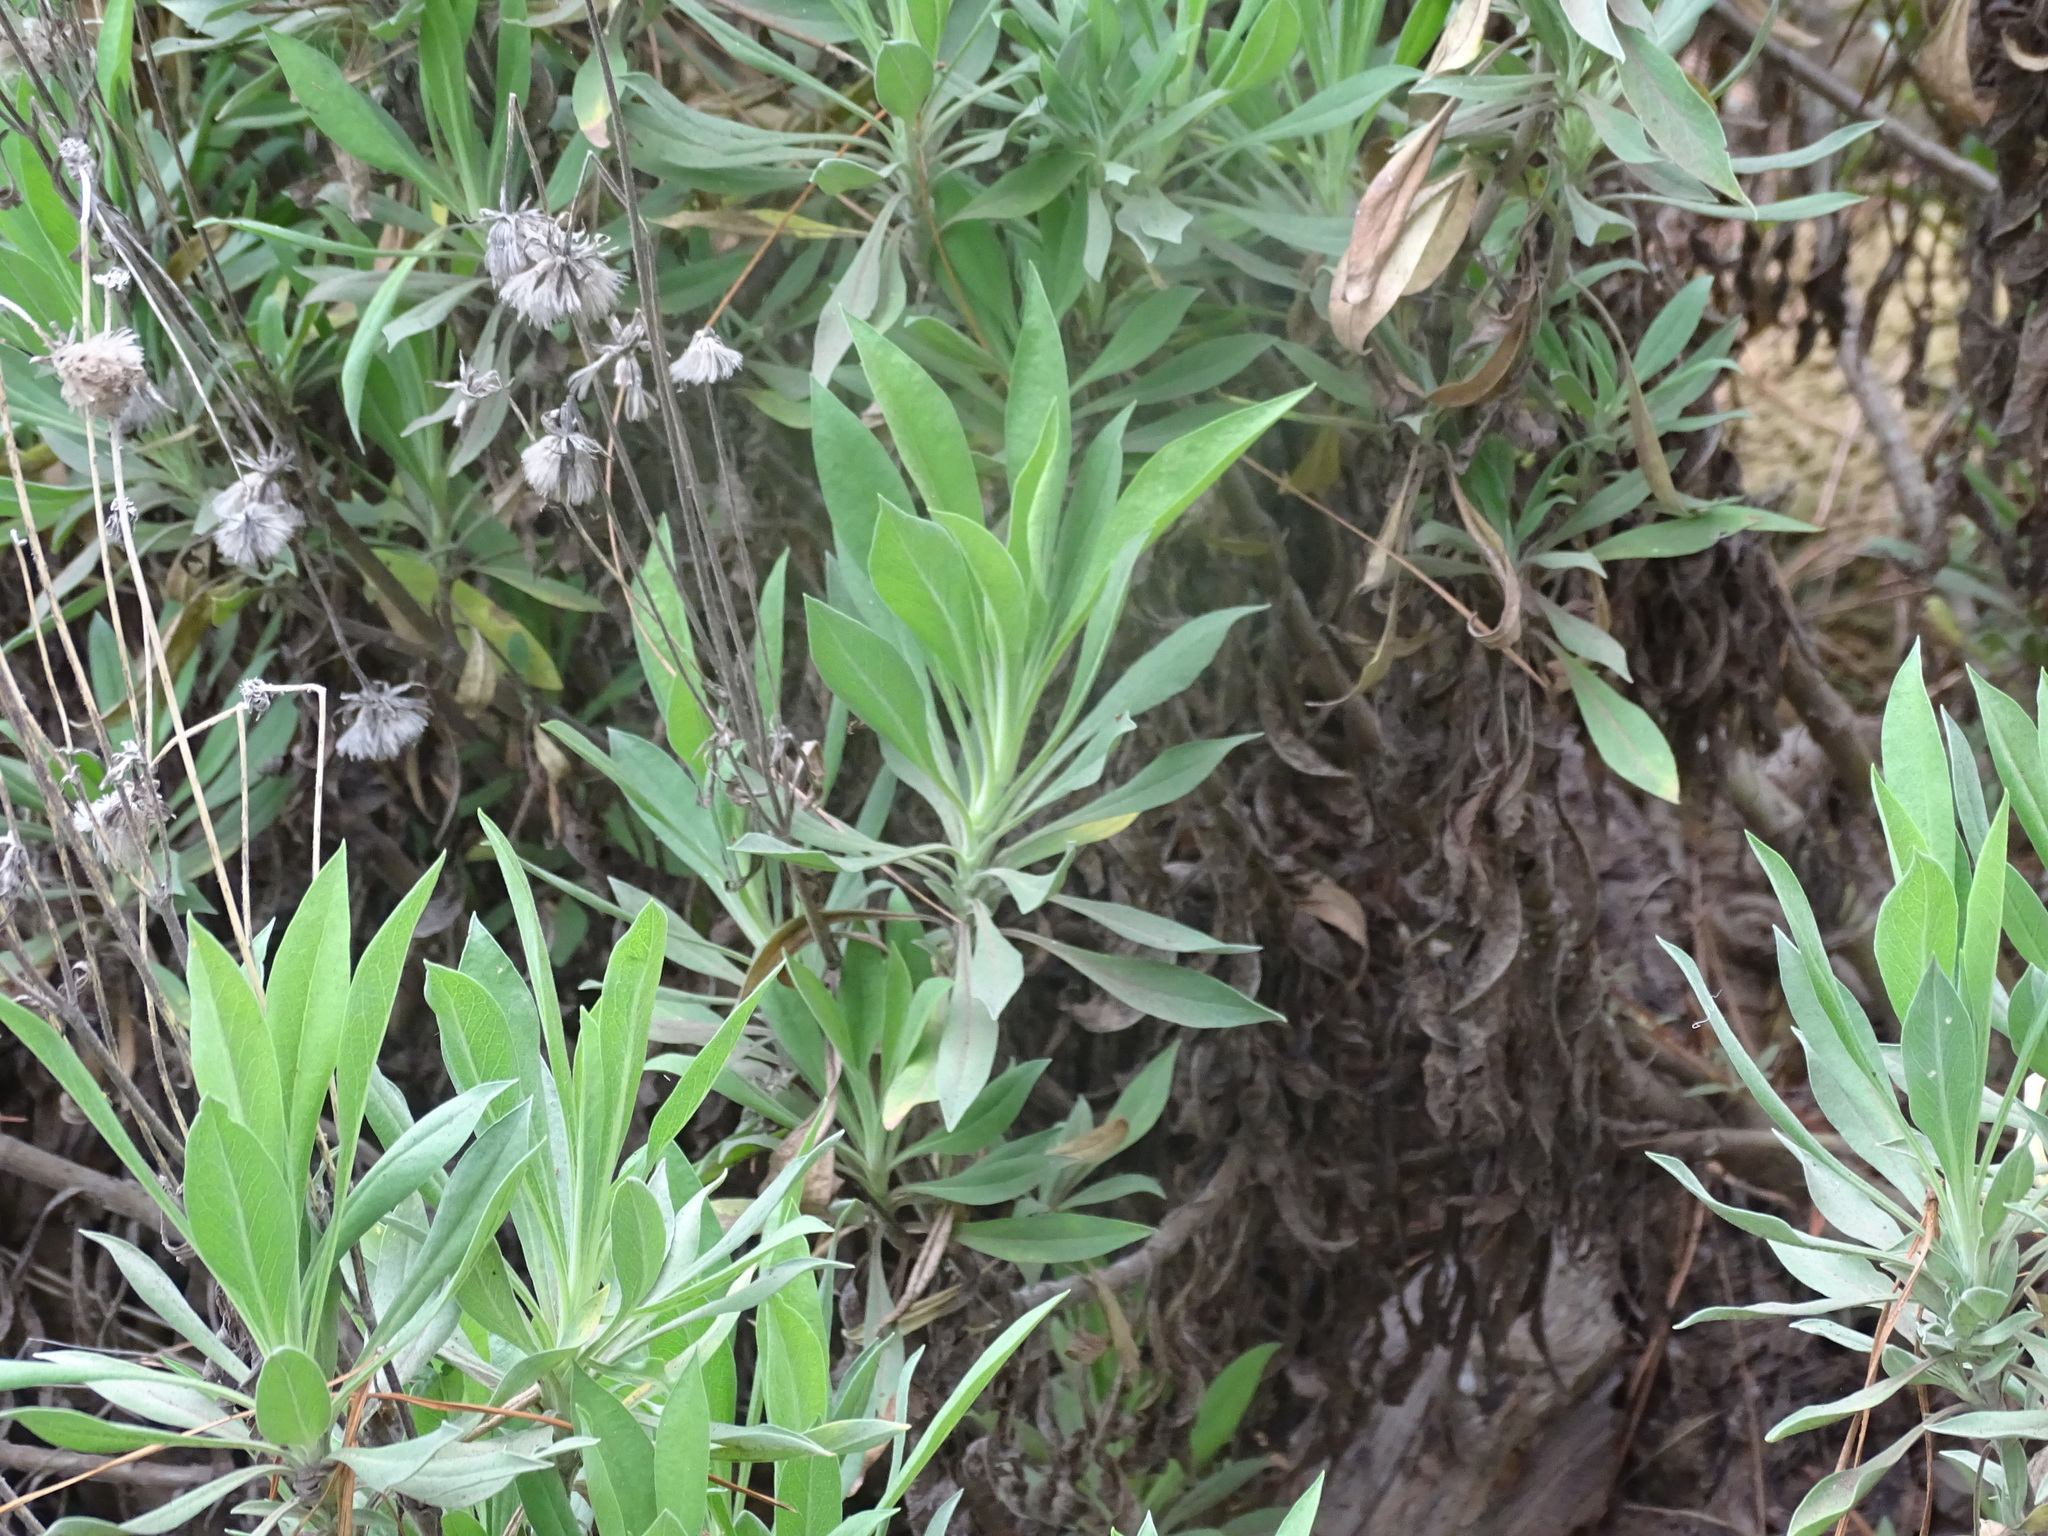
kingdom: Plantae
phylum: Tracheophyta
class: Magnoliopsida
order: Dipsacales
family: Caprifoliaceae
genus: Pterocephalus
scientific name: Pterocephalus lasiospermus
